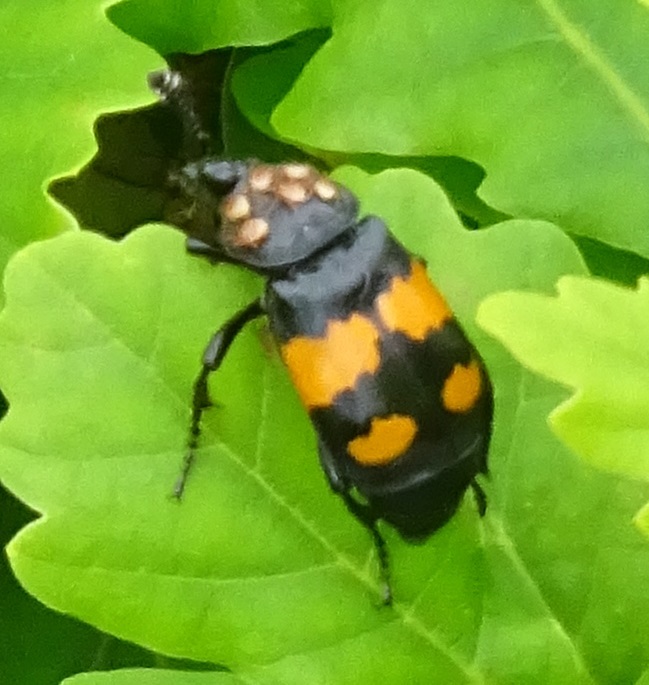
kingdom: Animalia
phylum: Arthropoda
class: Insecta
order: Coleoptera
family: Staphylinidae
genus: Nicrophorus
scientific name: Nicrophorus vespilloides
